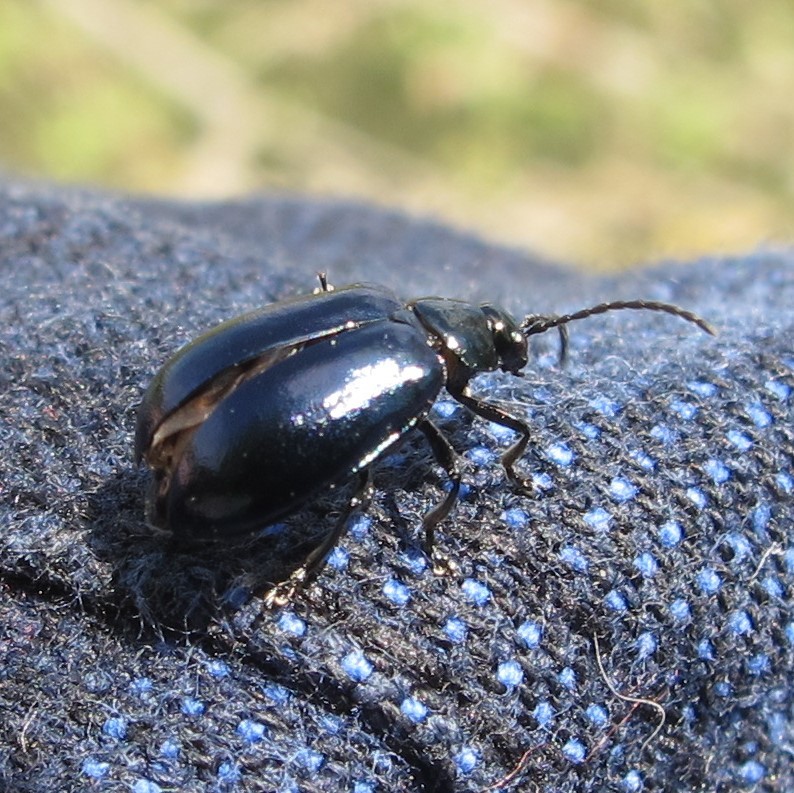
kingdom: Animalia
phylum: Arthropoda
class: Insecta
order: Coleoptera
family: Chrysomelidae
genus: Agelastica
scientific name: Agelastica alni
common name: Alder leaf beetle
